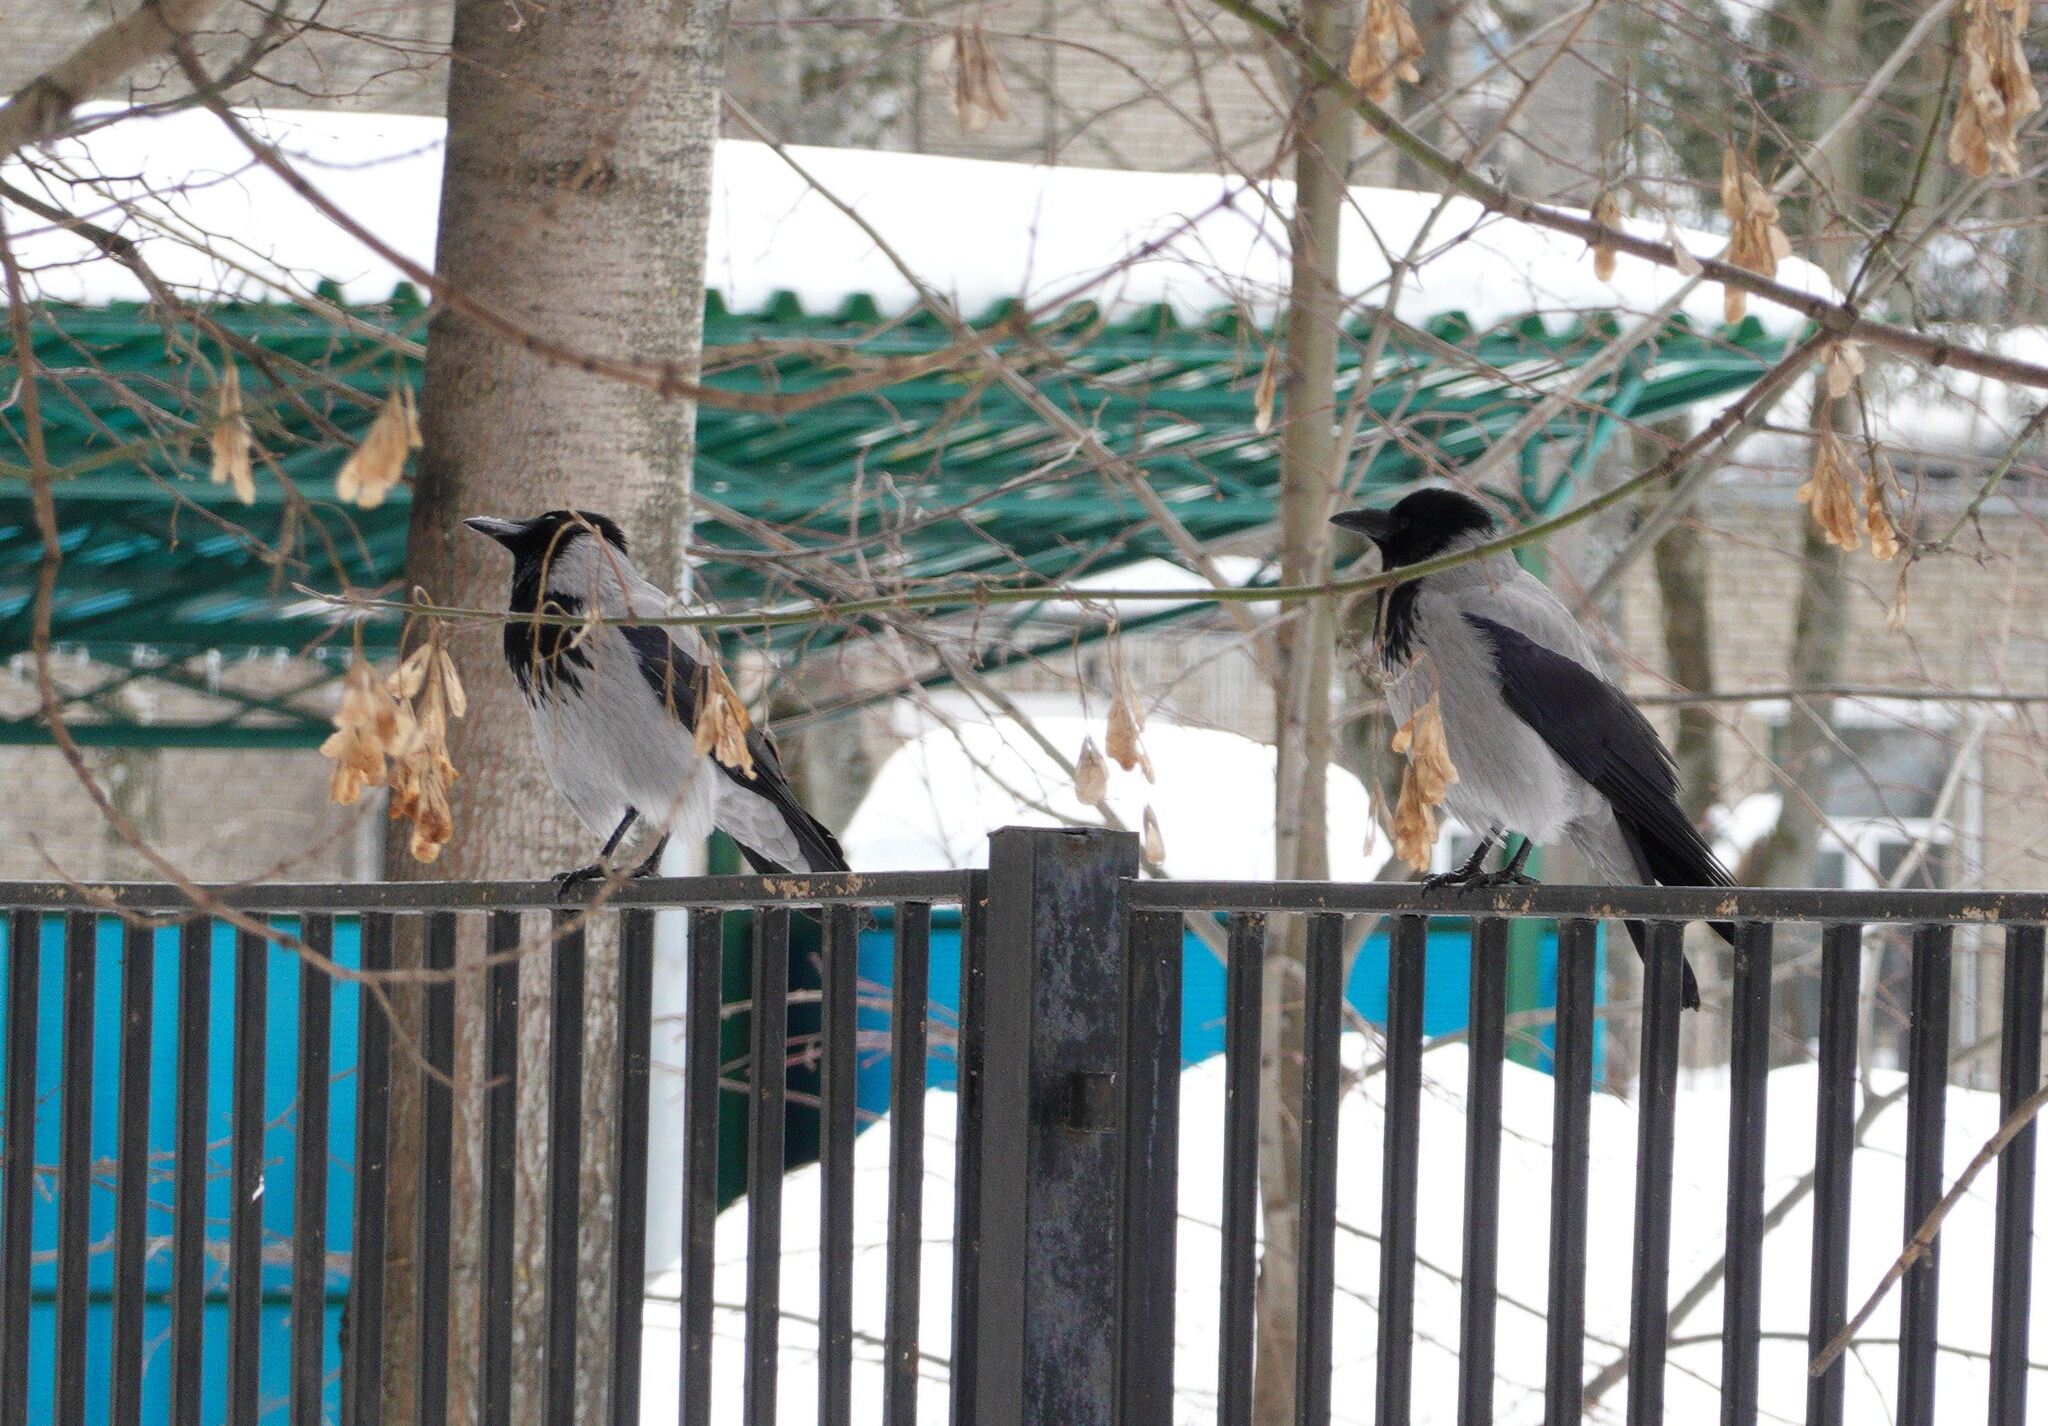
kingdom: Animalia
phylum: Chordata
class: Aves
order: Passeriformes
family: Corvidae
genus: Corvus
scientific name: Corvus cornix
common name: Hooded crow
